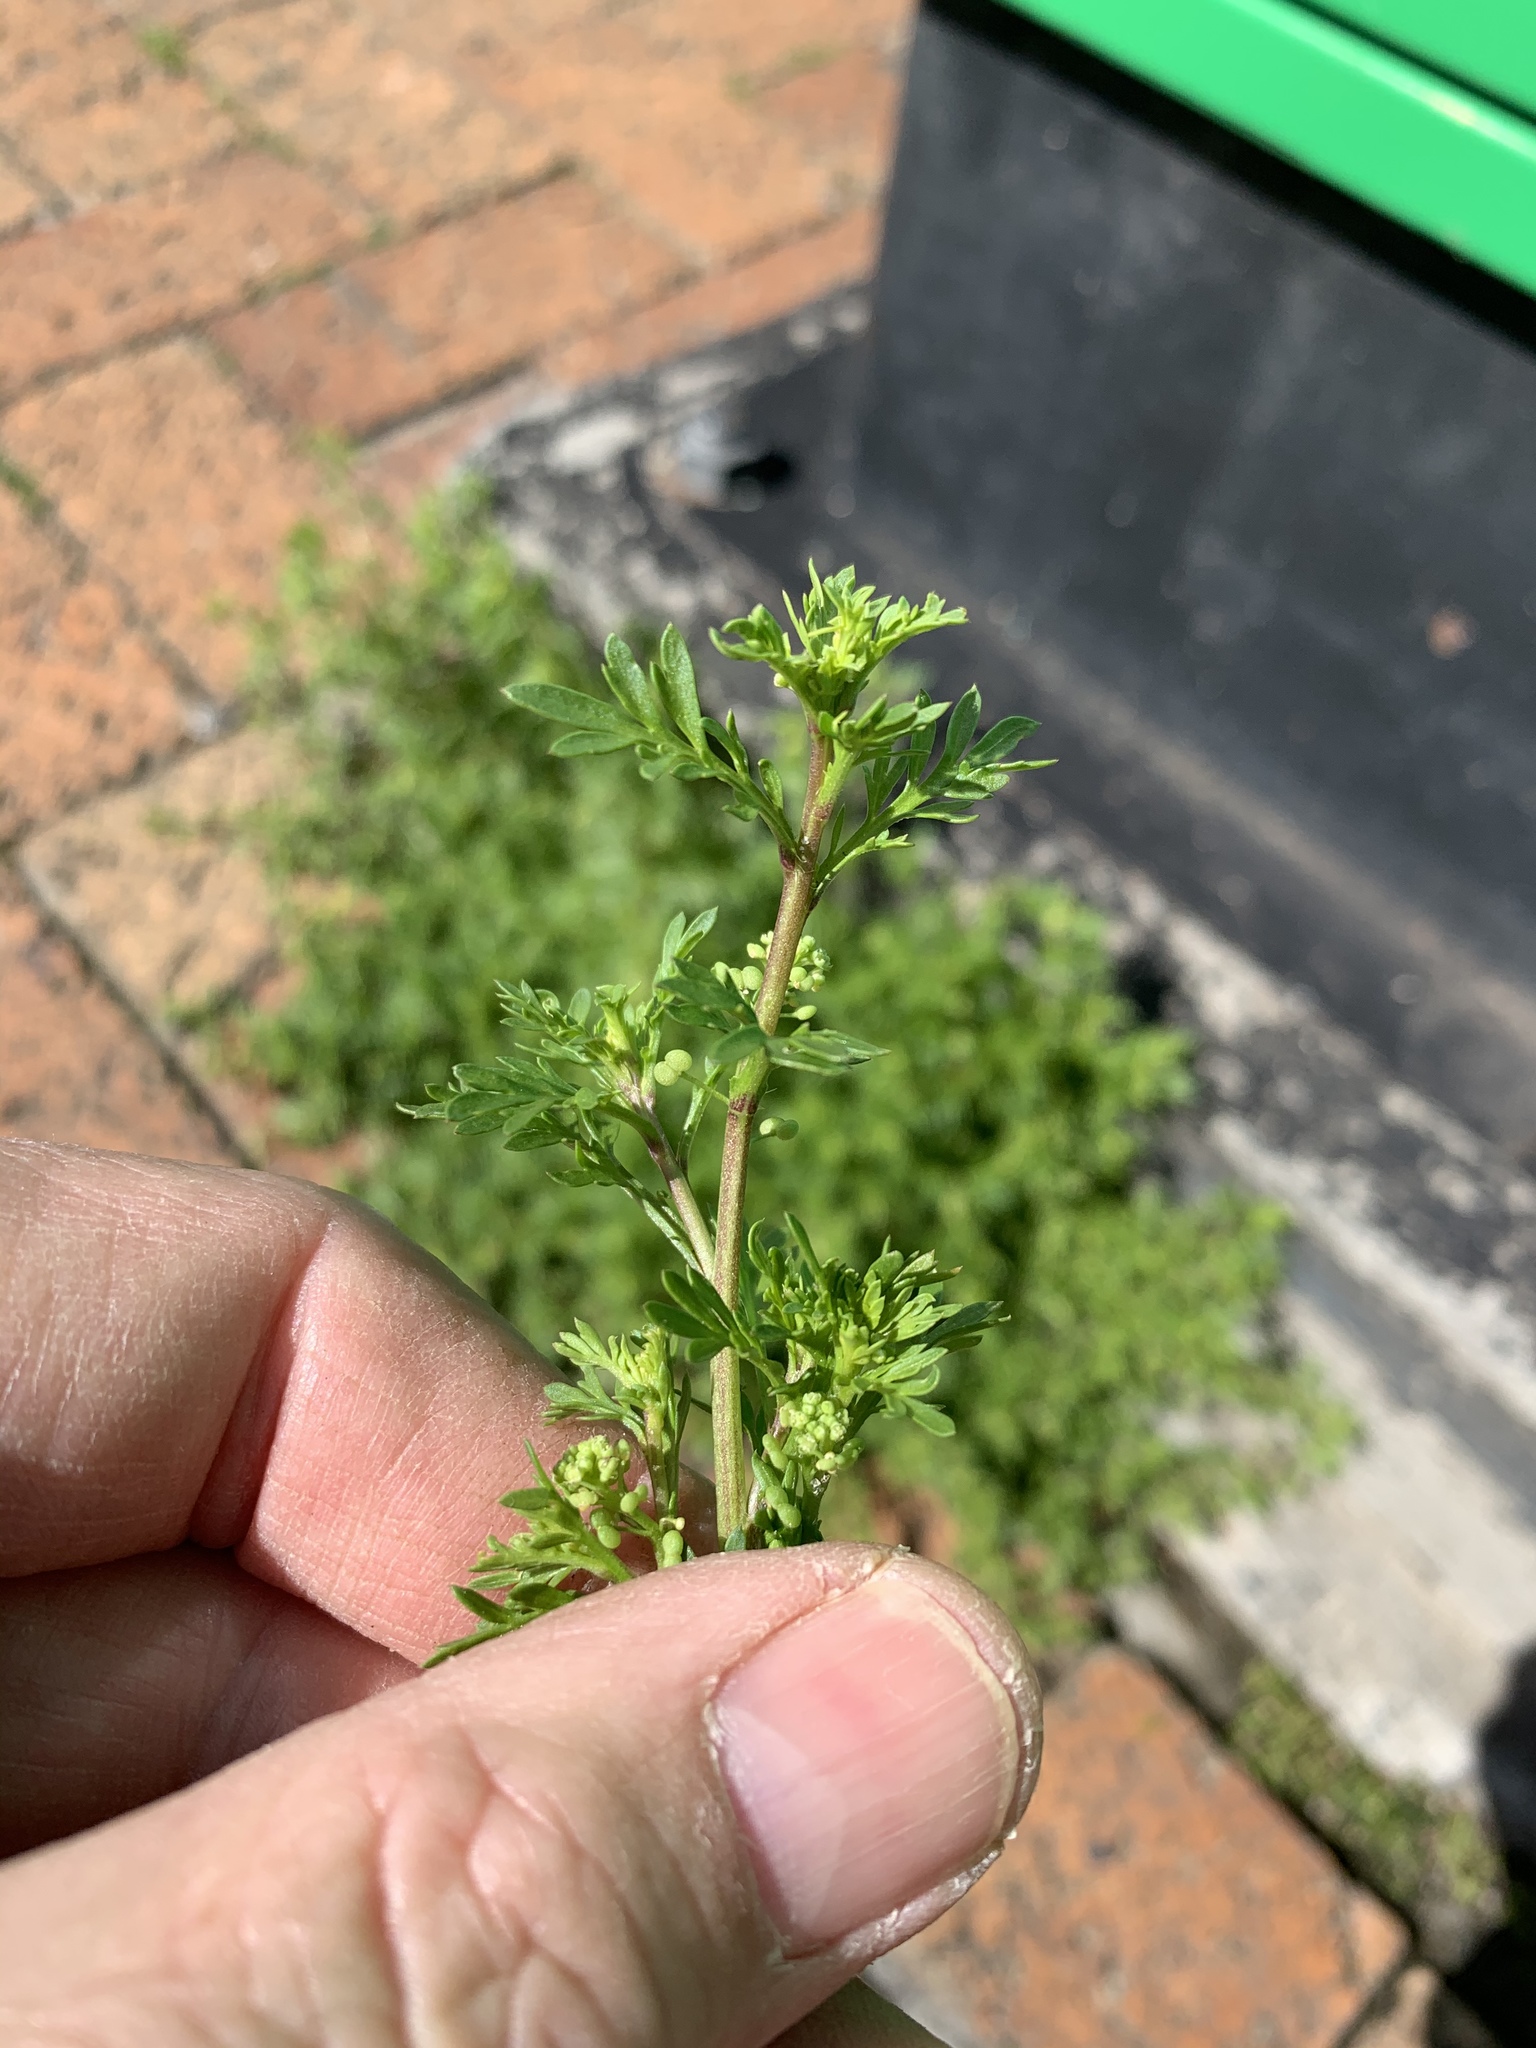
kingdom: Plantae
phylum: Tracheophyta
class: Magnoliopsida
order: Brassicales
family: Brassicaceae
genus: Lepidium
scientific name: Lepidium didymum
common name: Lesser swinecress
